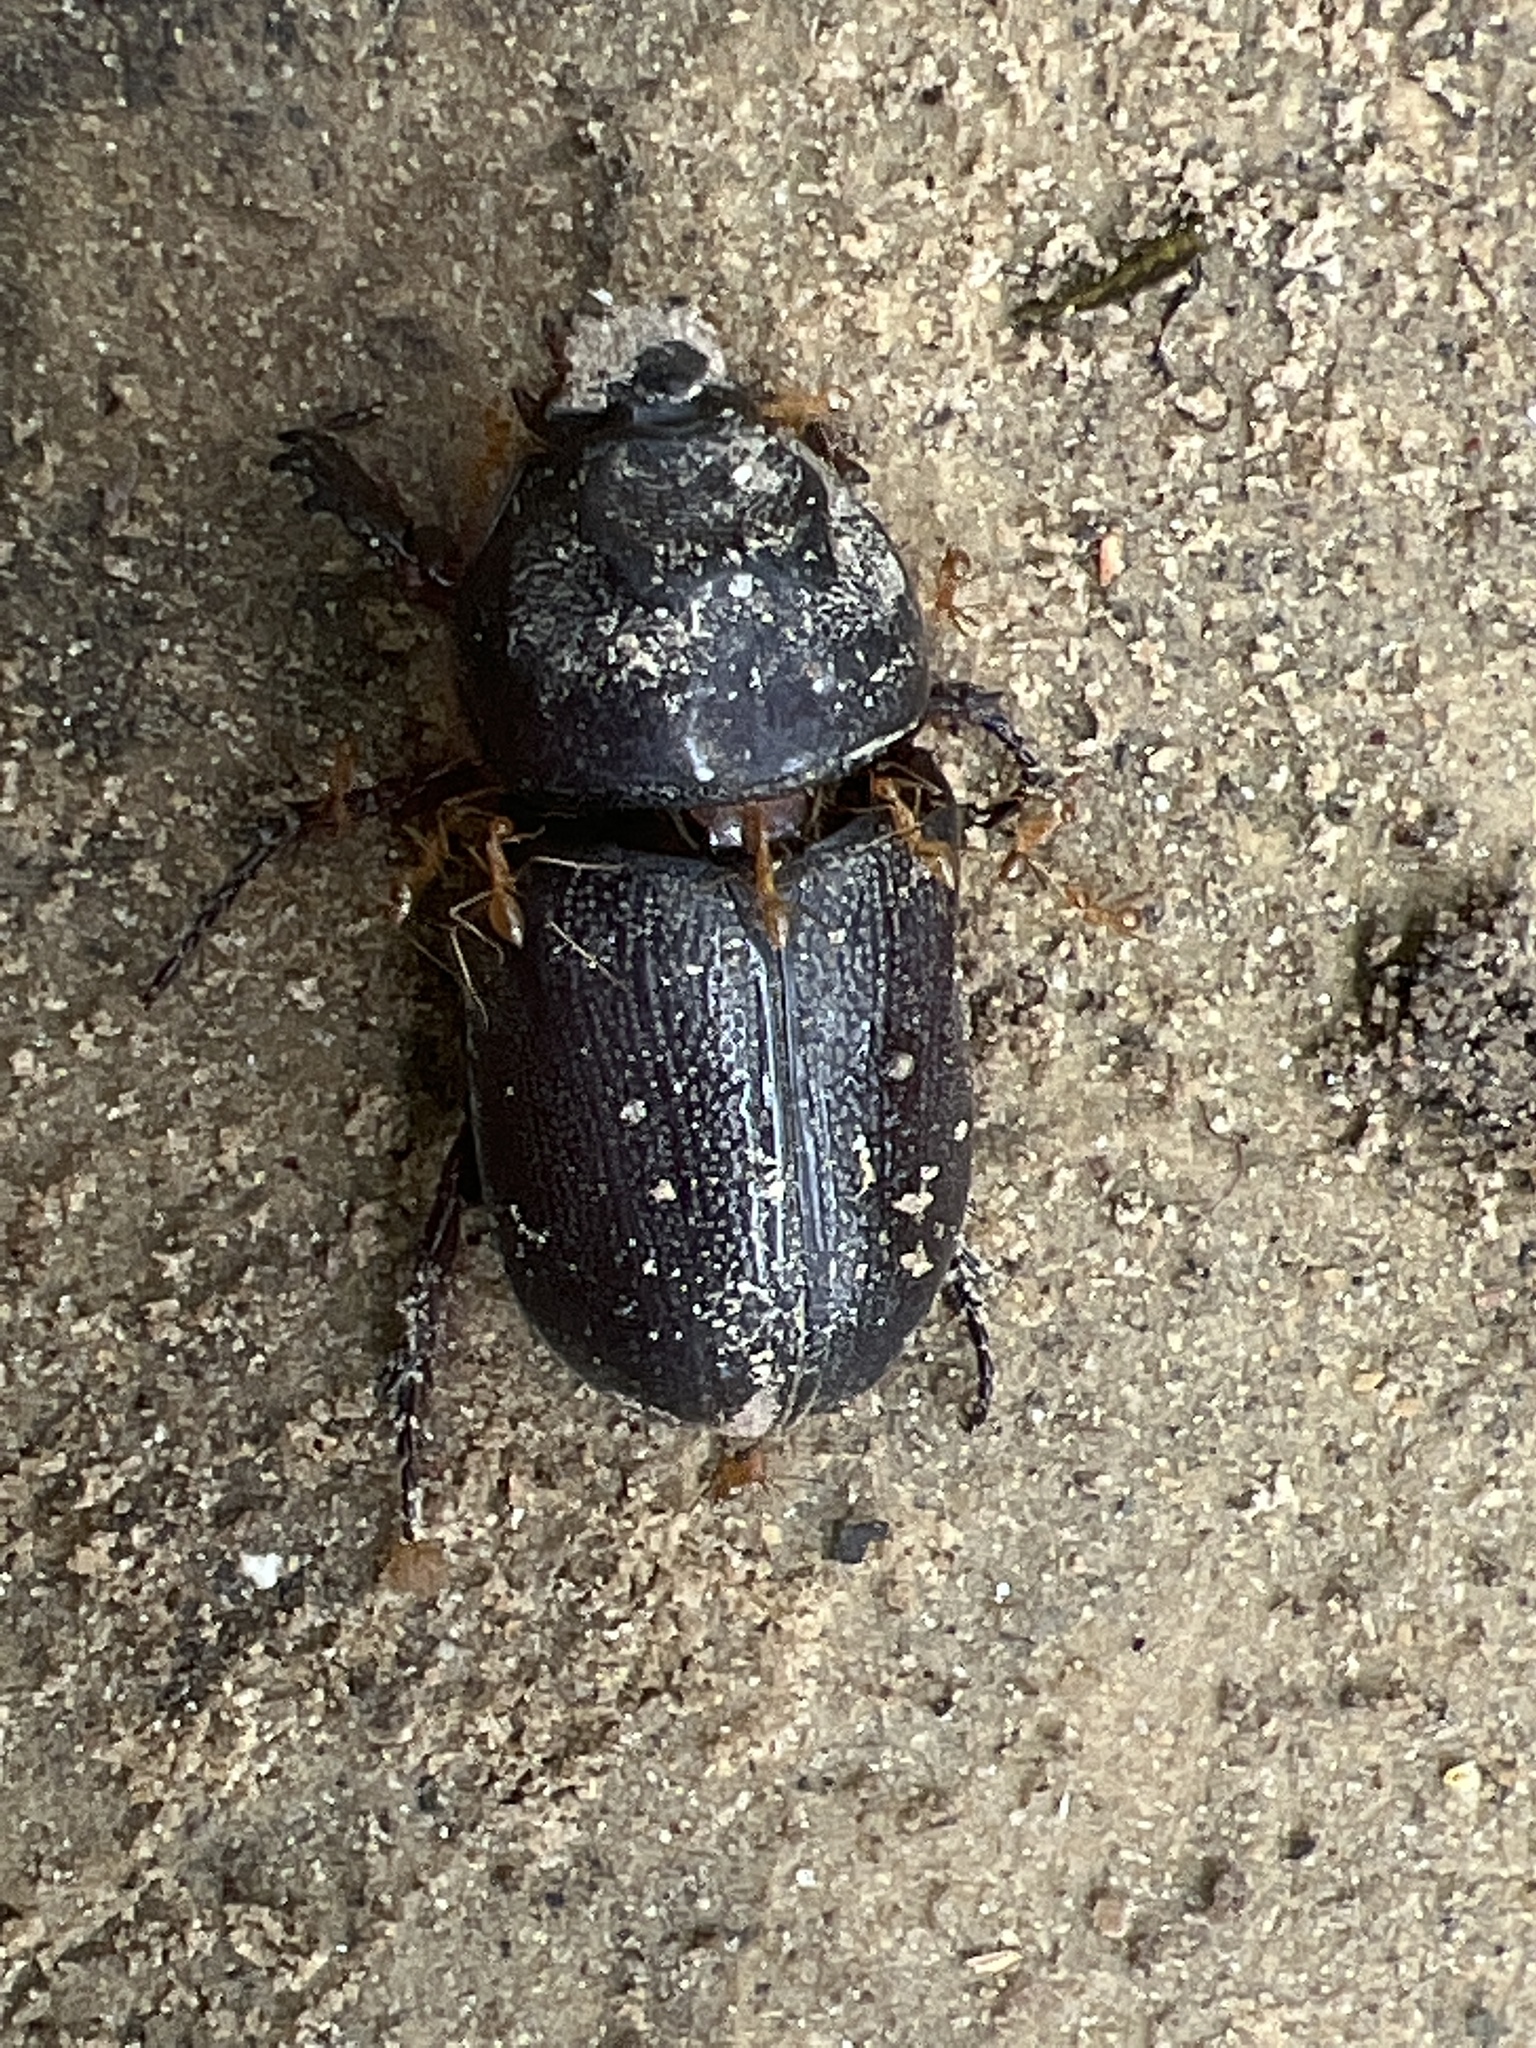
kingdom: Animalia
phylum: Arthropoda
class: Insecta
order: Coleoptera
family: Scarabaeidae
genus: Oryctes
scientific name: Oryctes rhinoceros
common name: Coconut rhinoceros beetle
